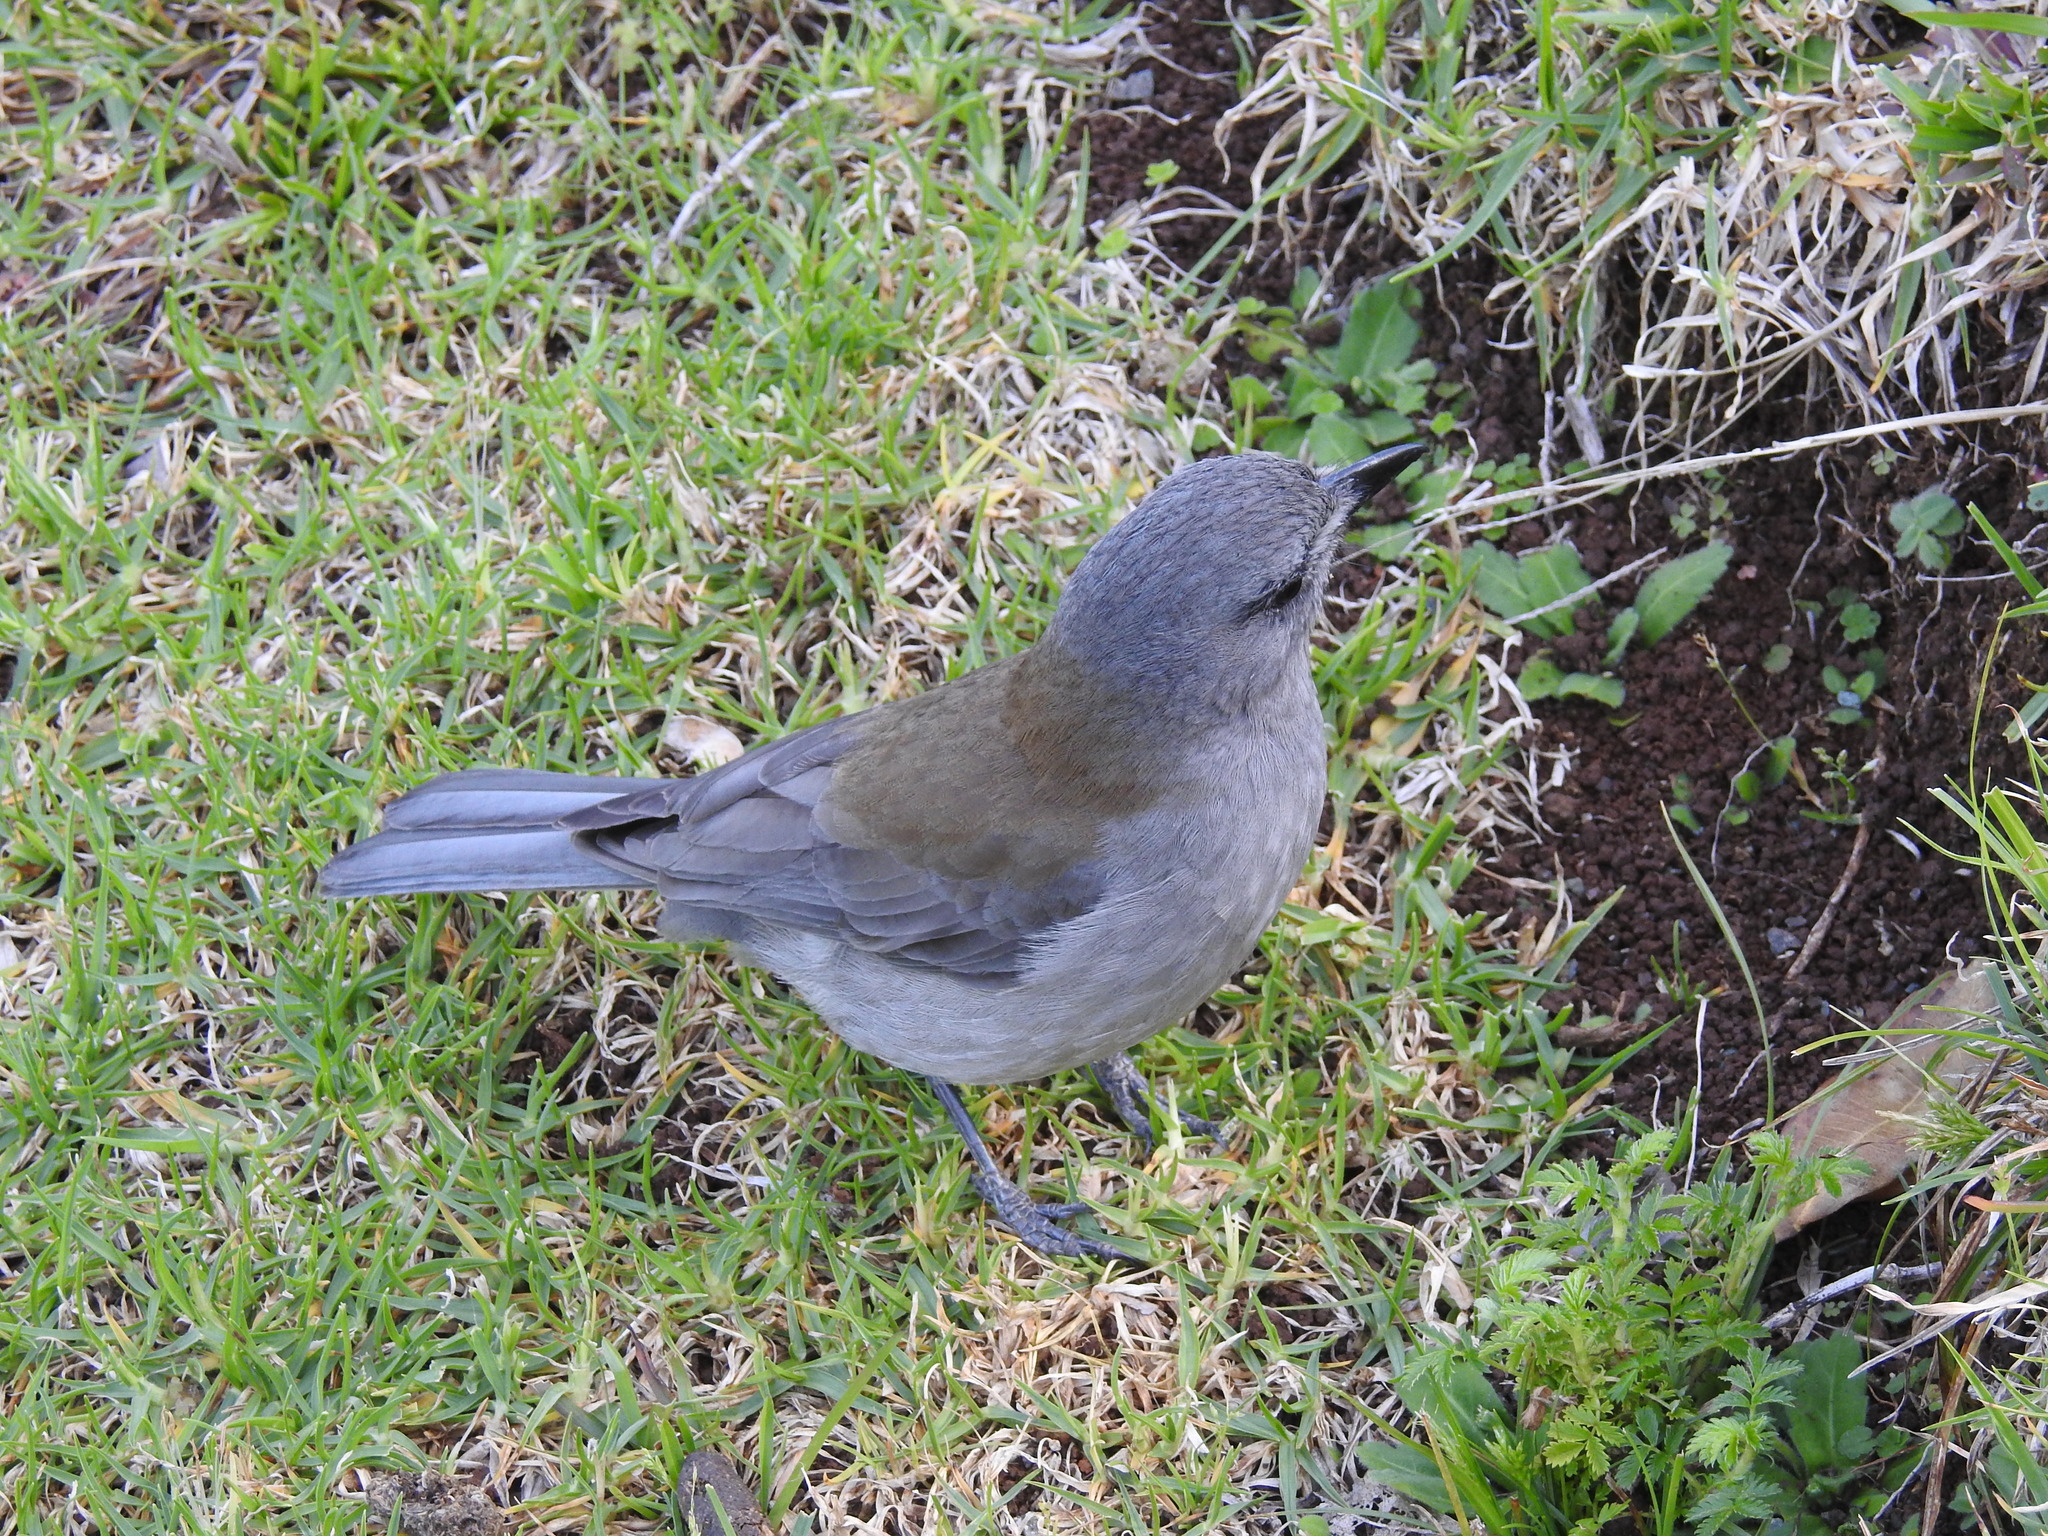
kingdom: Animalia
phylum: Chordata
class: Aves
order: Passeriformes
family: Pachycephalidae
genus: Colluricincla
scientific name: Colluricincla harmonica
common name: Grey shrikethrush
